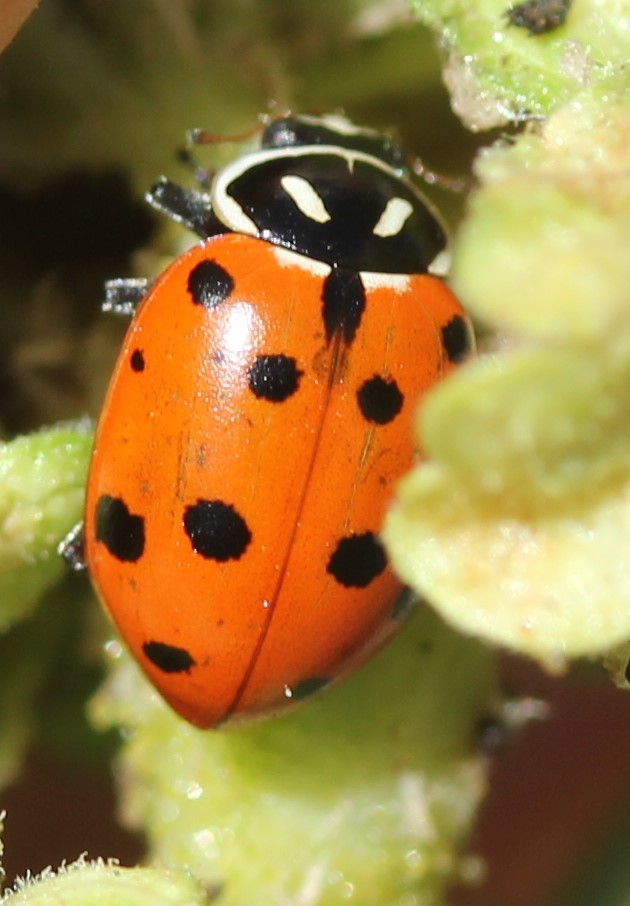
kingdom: Animalia
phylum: Arthropoda
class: Insecta
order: Coleoptera
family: Coccinellidae
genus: Hippodamia
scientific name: Hippodamia convergens
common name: Convergent lady beetle
